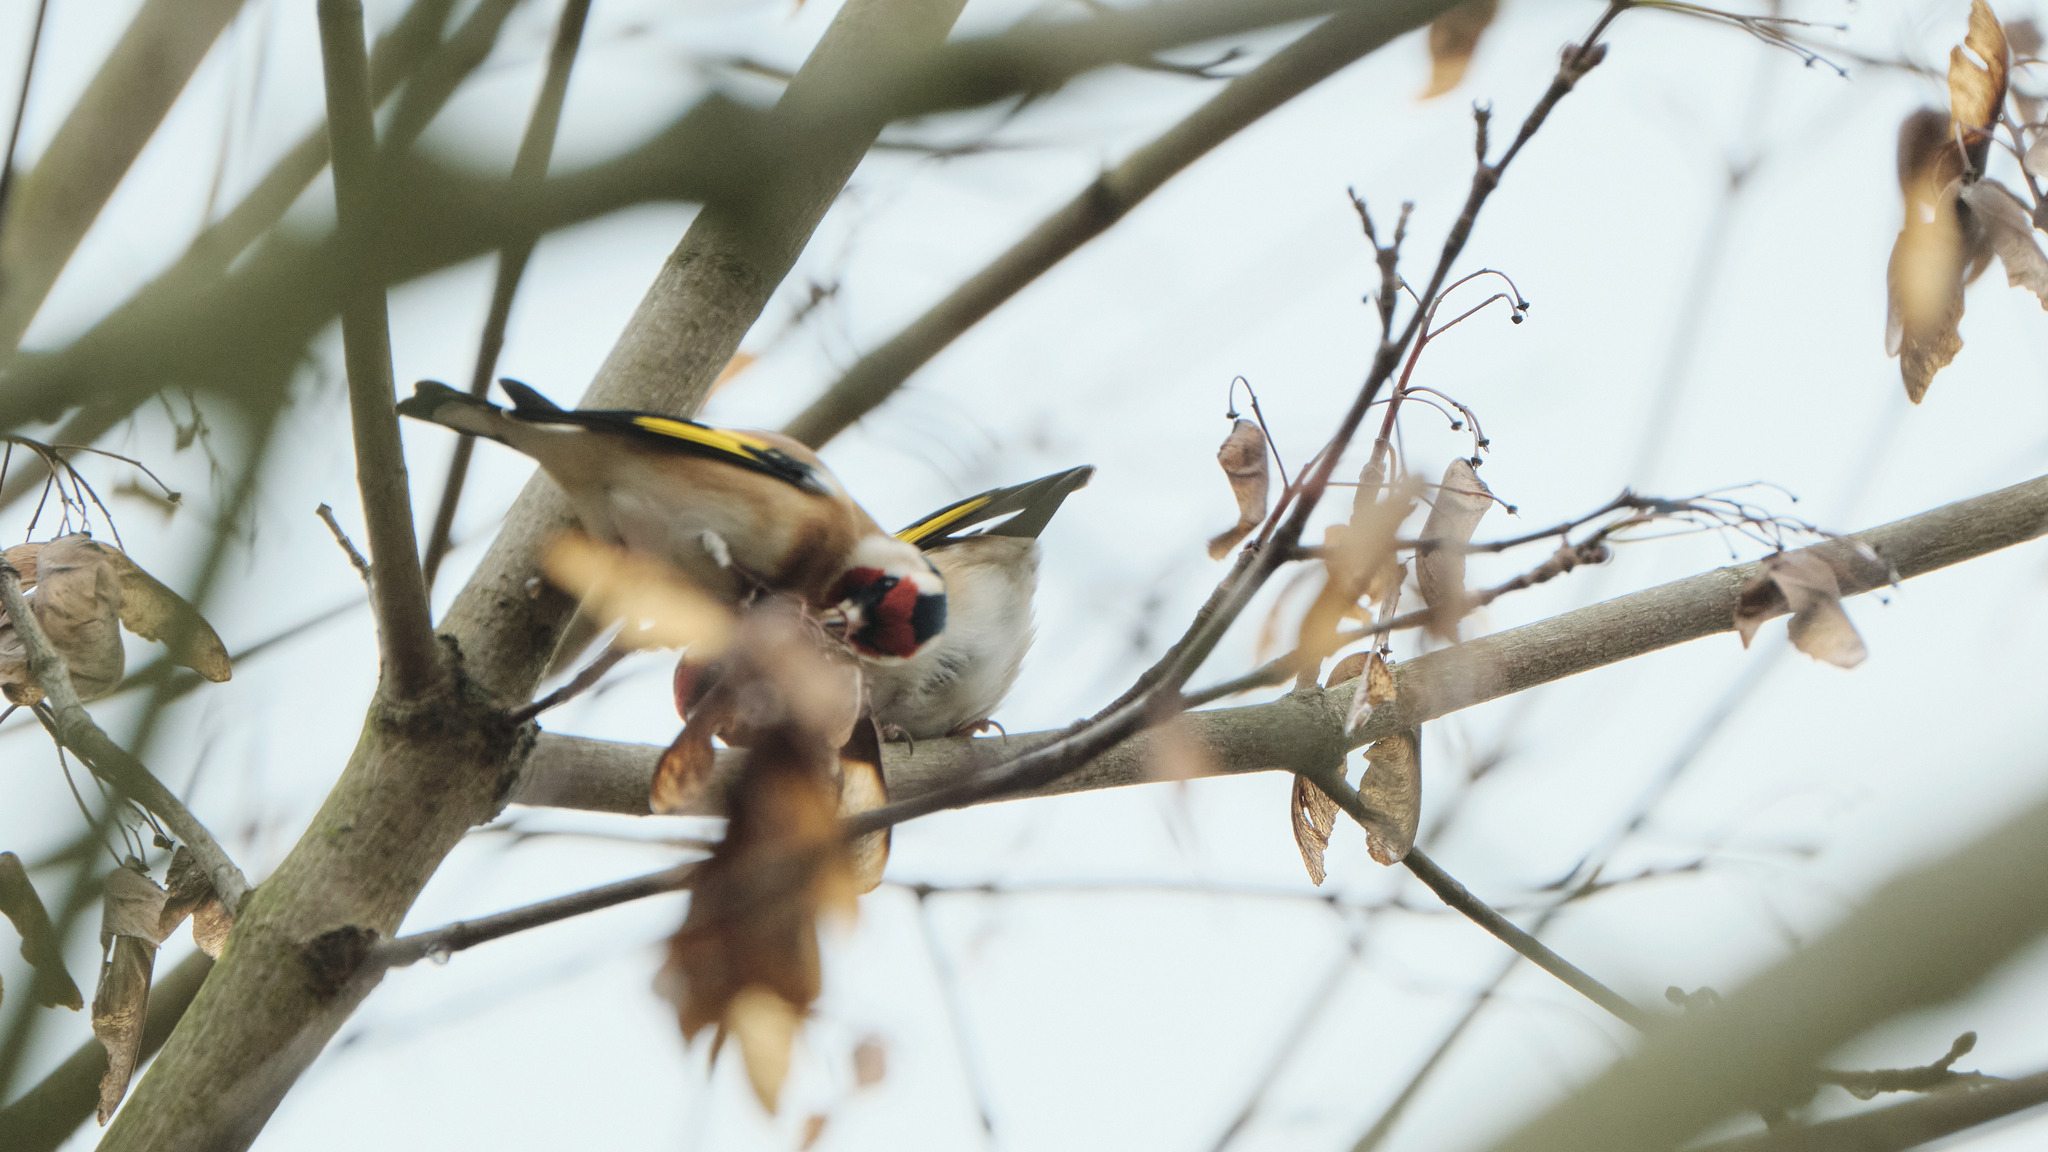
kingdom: Animalia
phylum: Chordata
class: Aves
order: Passeriformes
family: Fringillidae
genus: Carduelis
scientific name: Carduelis carduelis
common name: European goldfinch
